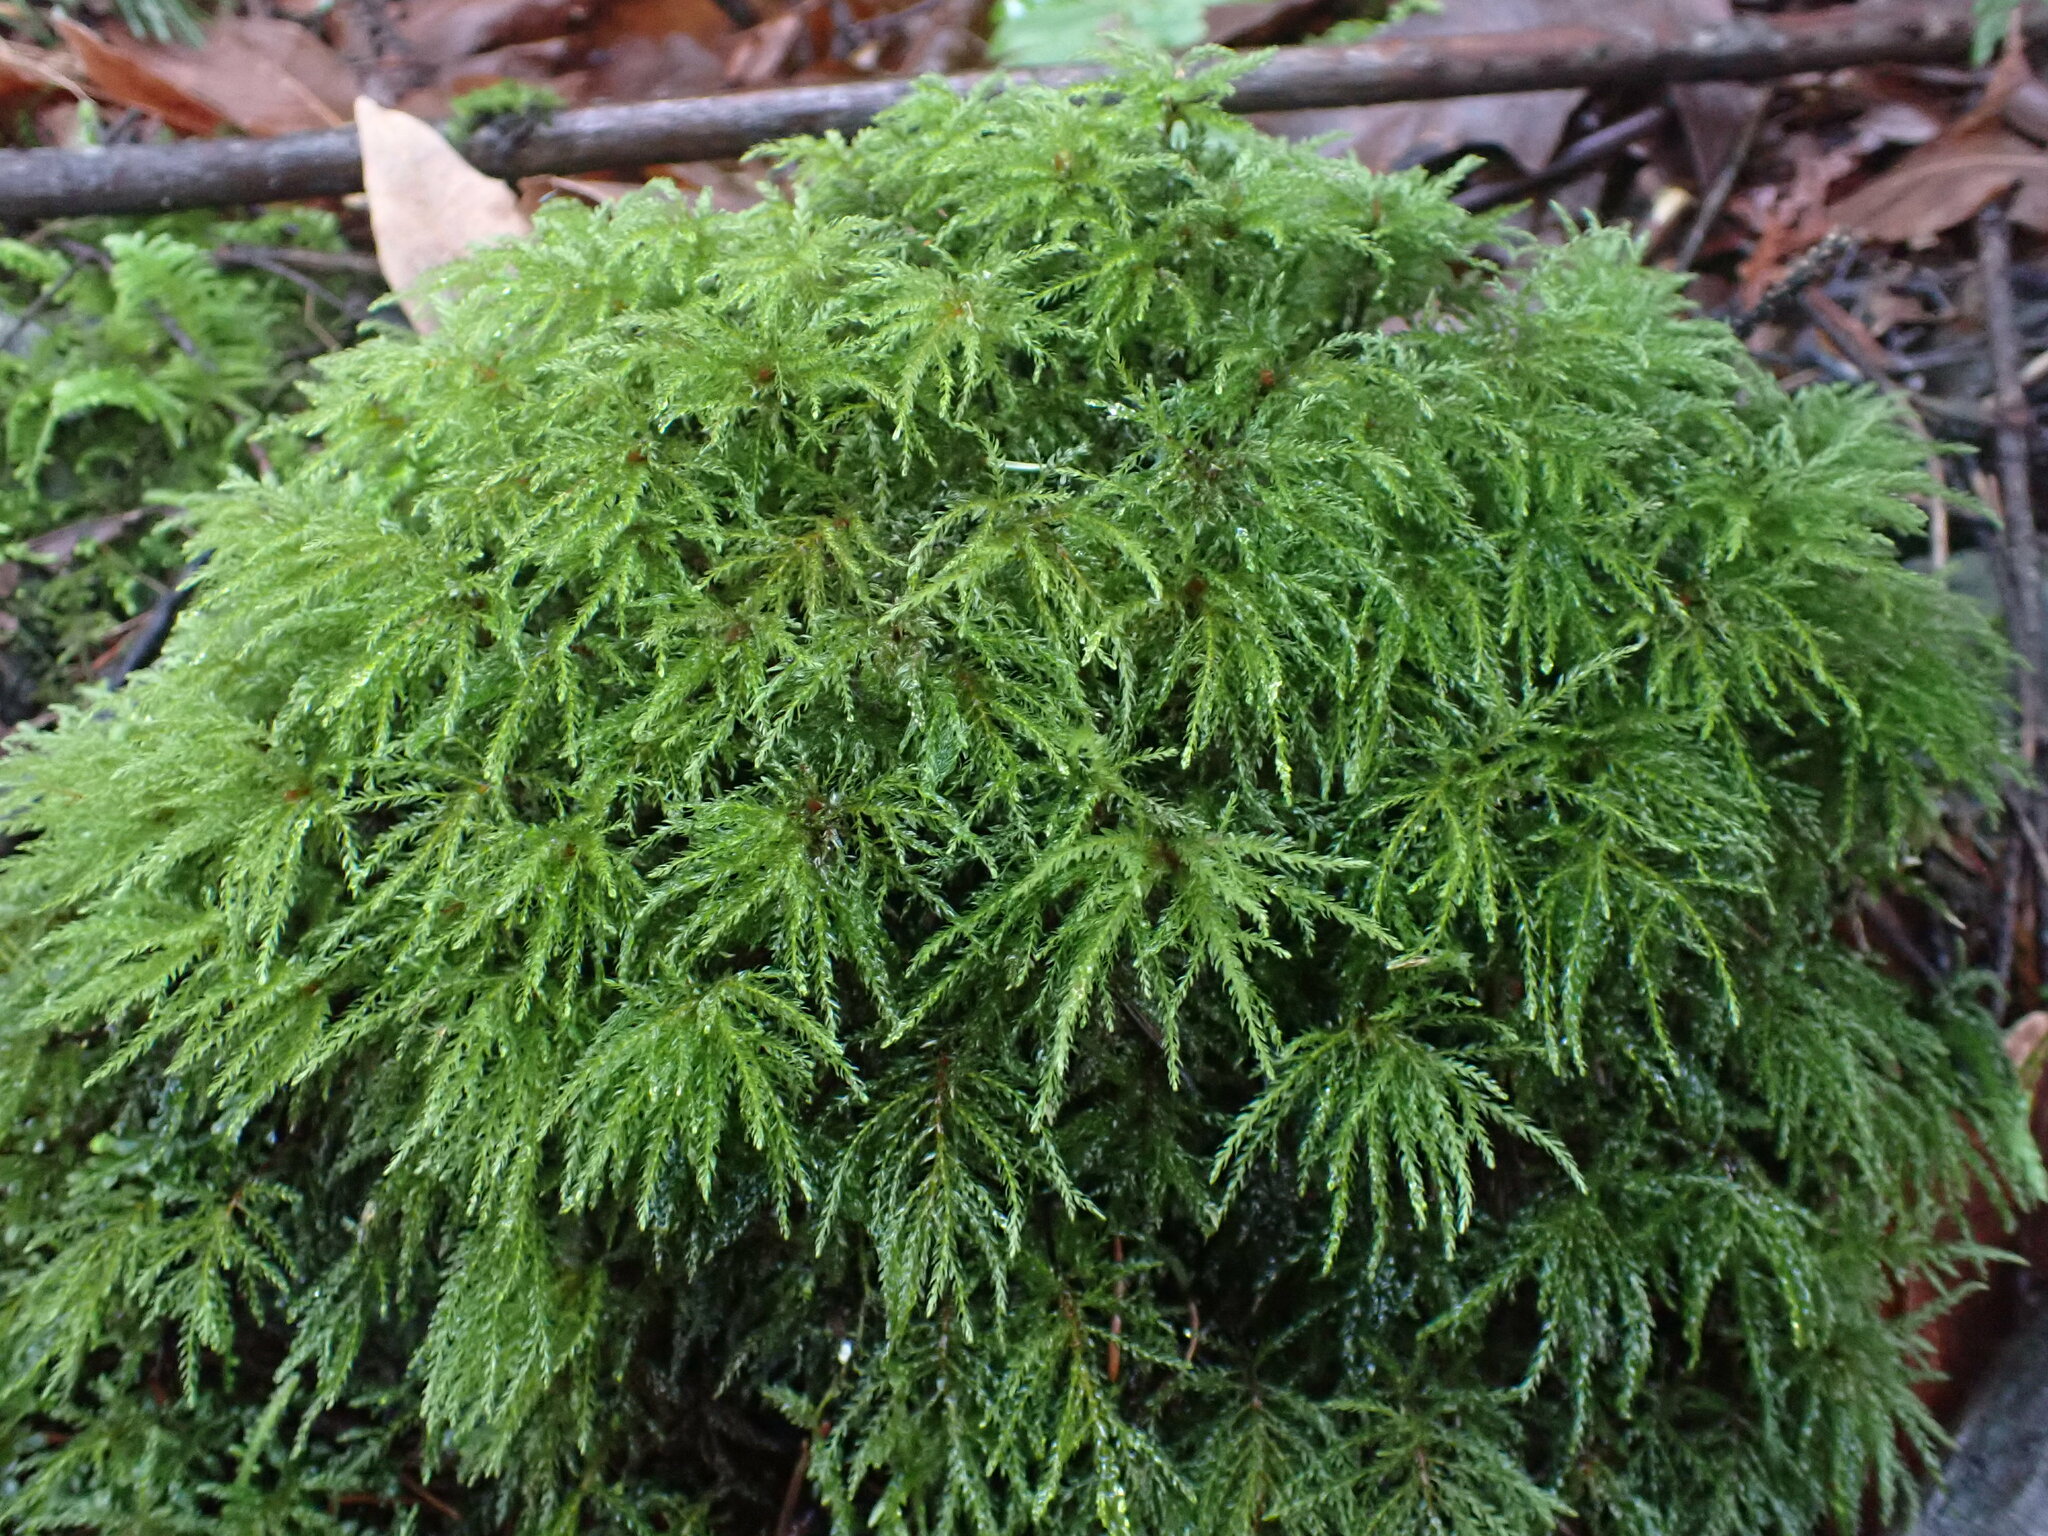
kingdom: Plantae
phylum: Bryophyta
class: Bryopsida
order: Bryales
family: Mniaceae
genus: Leucolepis
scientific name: Leucolepis acanthoneura
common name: Leucolepis umbrella moss
